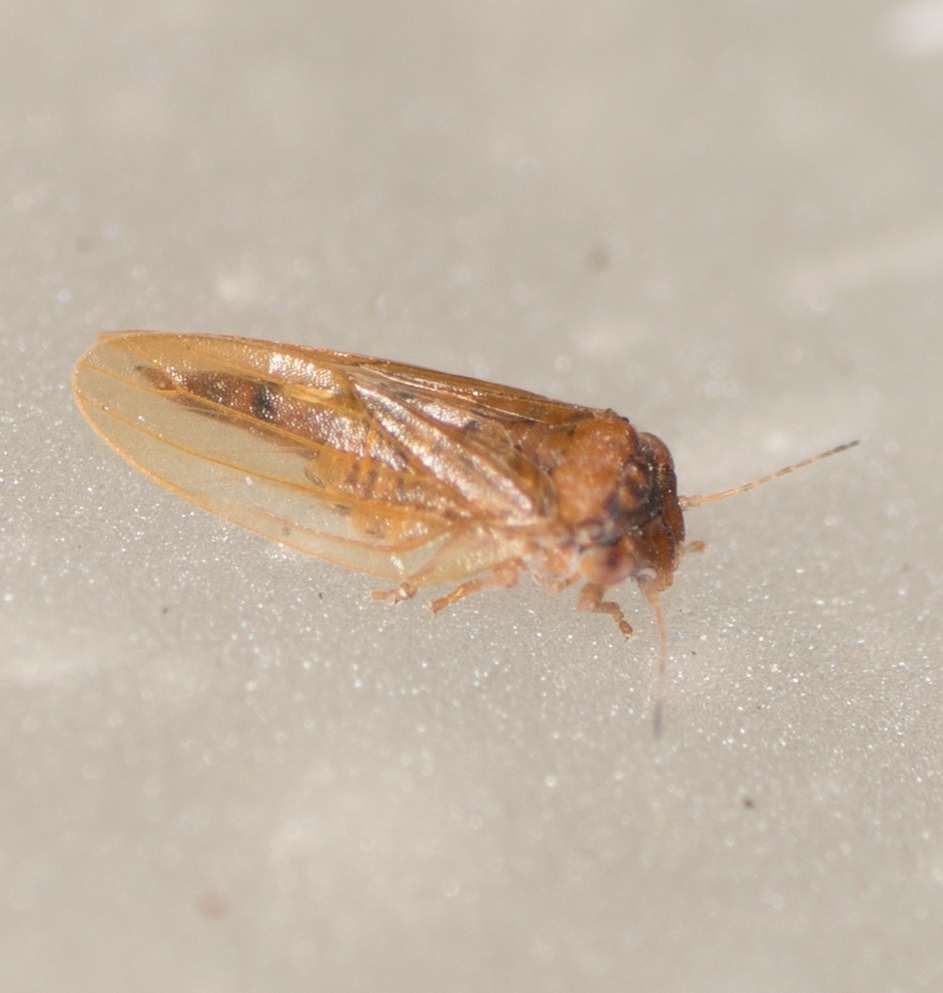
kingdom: Animalia
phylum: Arthropoda
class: Insecta
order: Hemiptera
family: Aphalaridae
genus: Ctenarytaina
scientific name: Ctenarytaina longicauda
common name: Tristania psyllid
